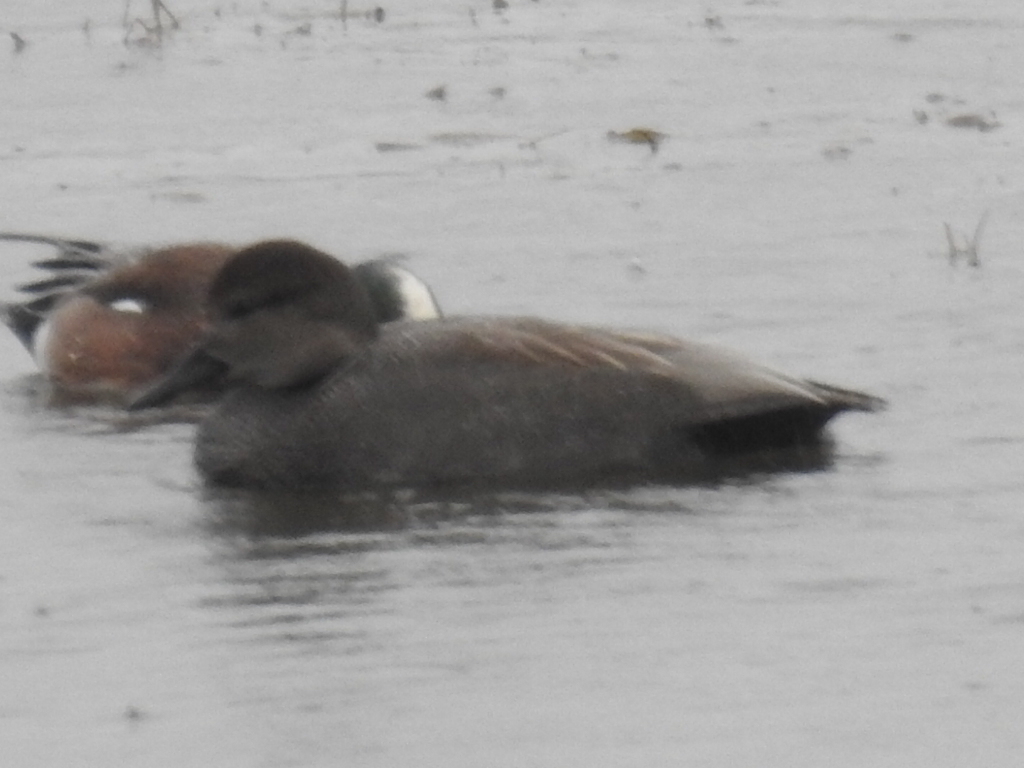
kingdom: Animalia
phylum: Chordata
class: Aves
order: Anseriformes
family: Anatidae
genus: Mareca
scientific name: Mareca strepera
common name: Gadwall
